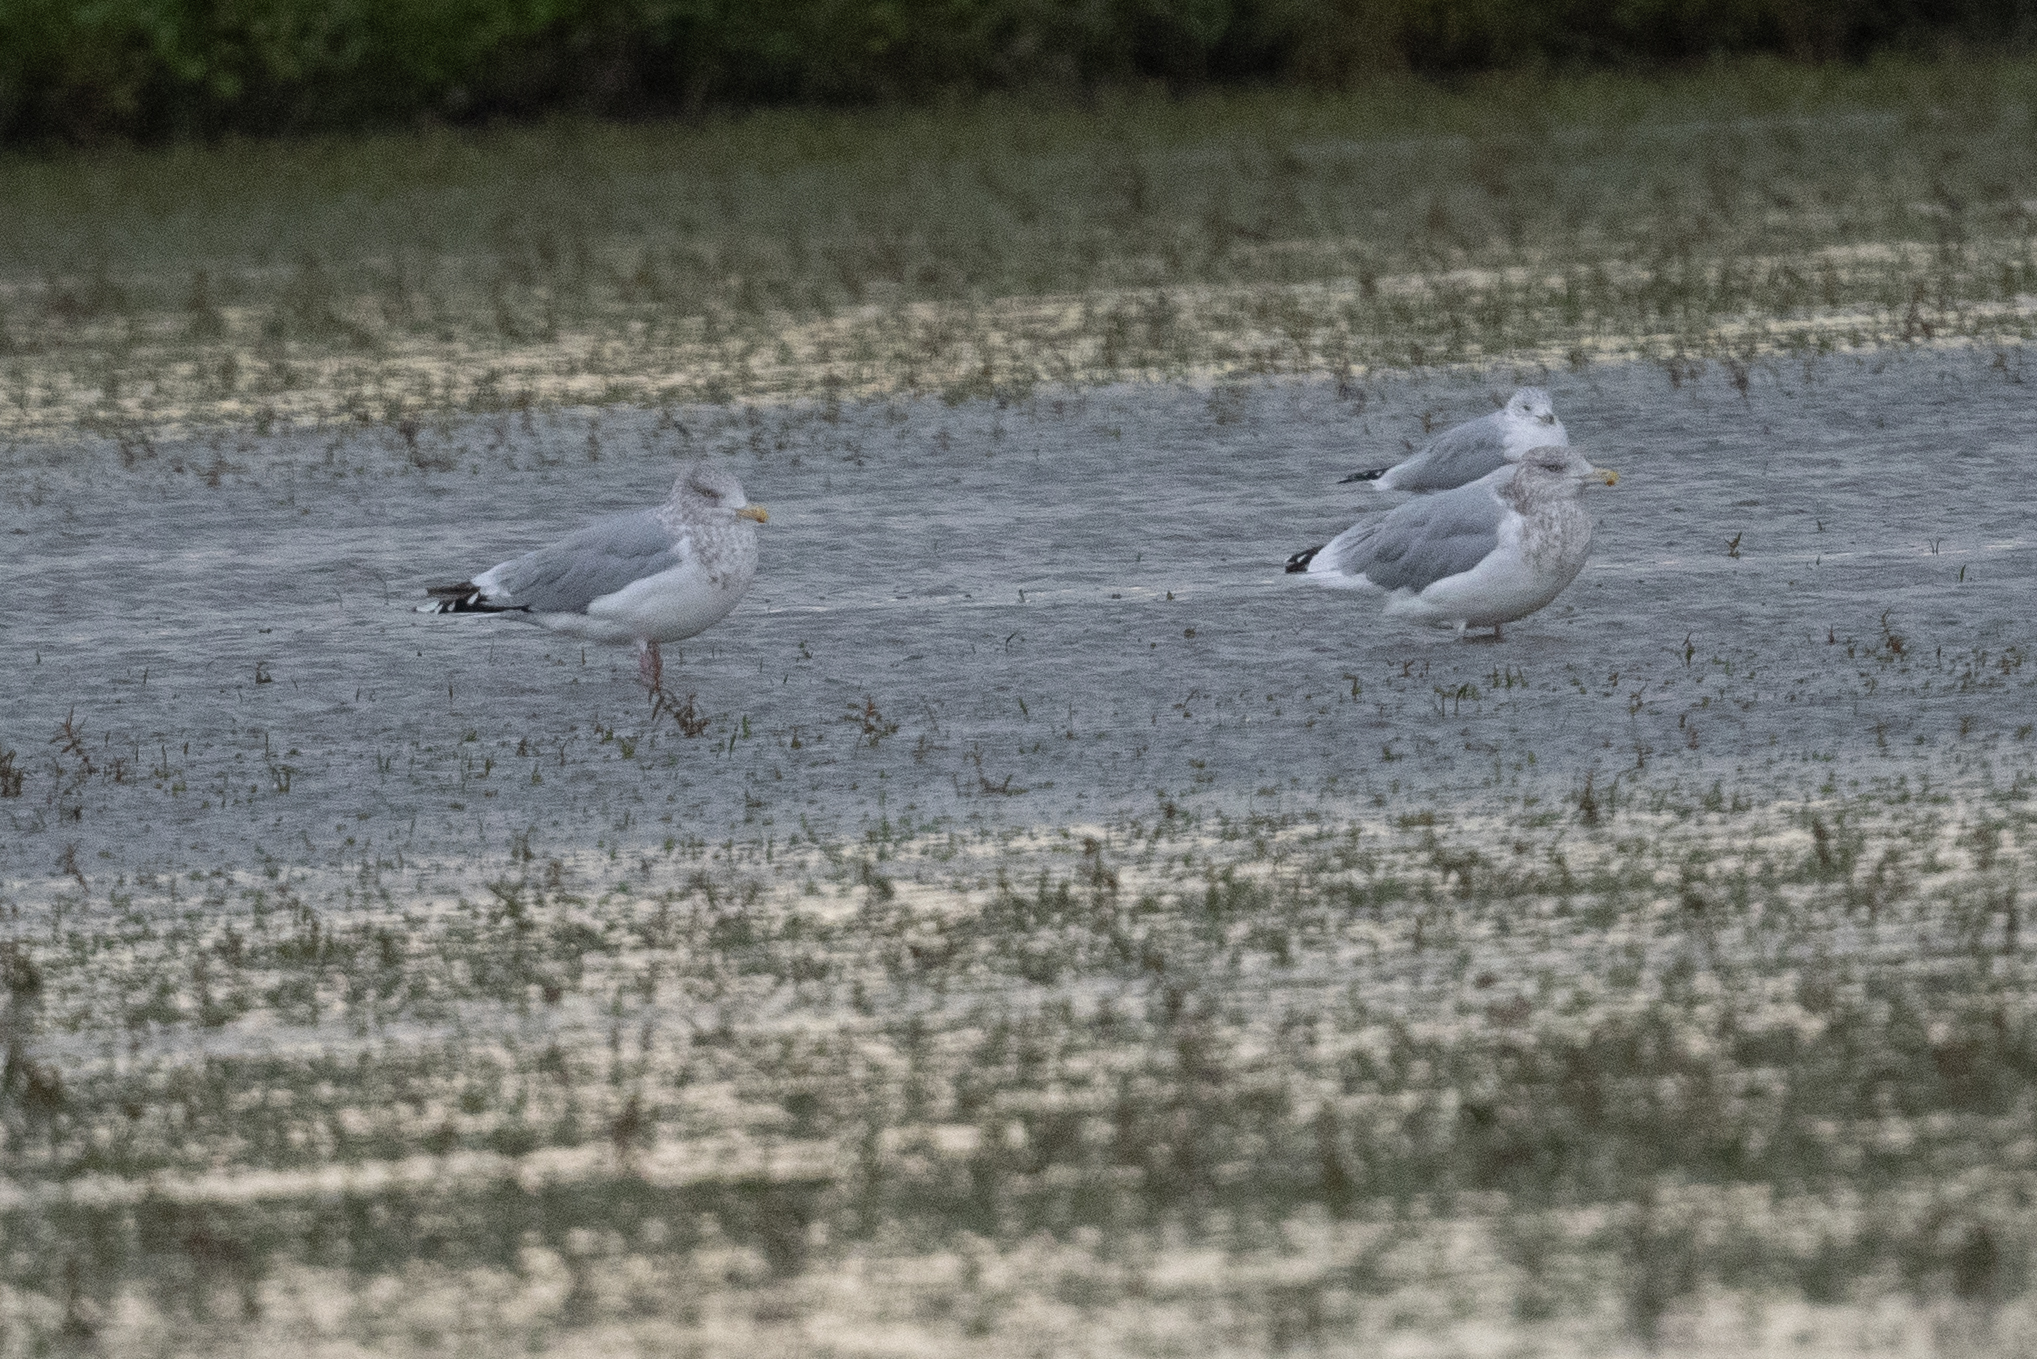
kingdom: Animalia
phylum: Chordata
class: Aves
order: Charadriiformes
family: Laridae
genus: Larus
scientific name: Larus argentatus
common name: Herring gull
